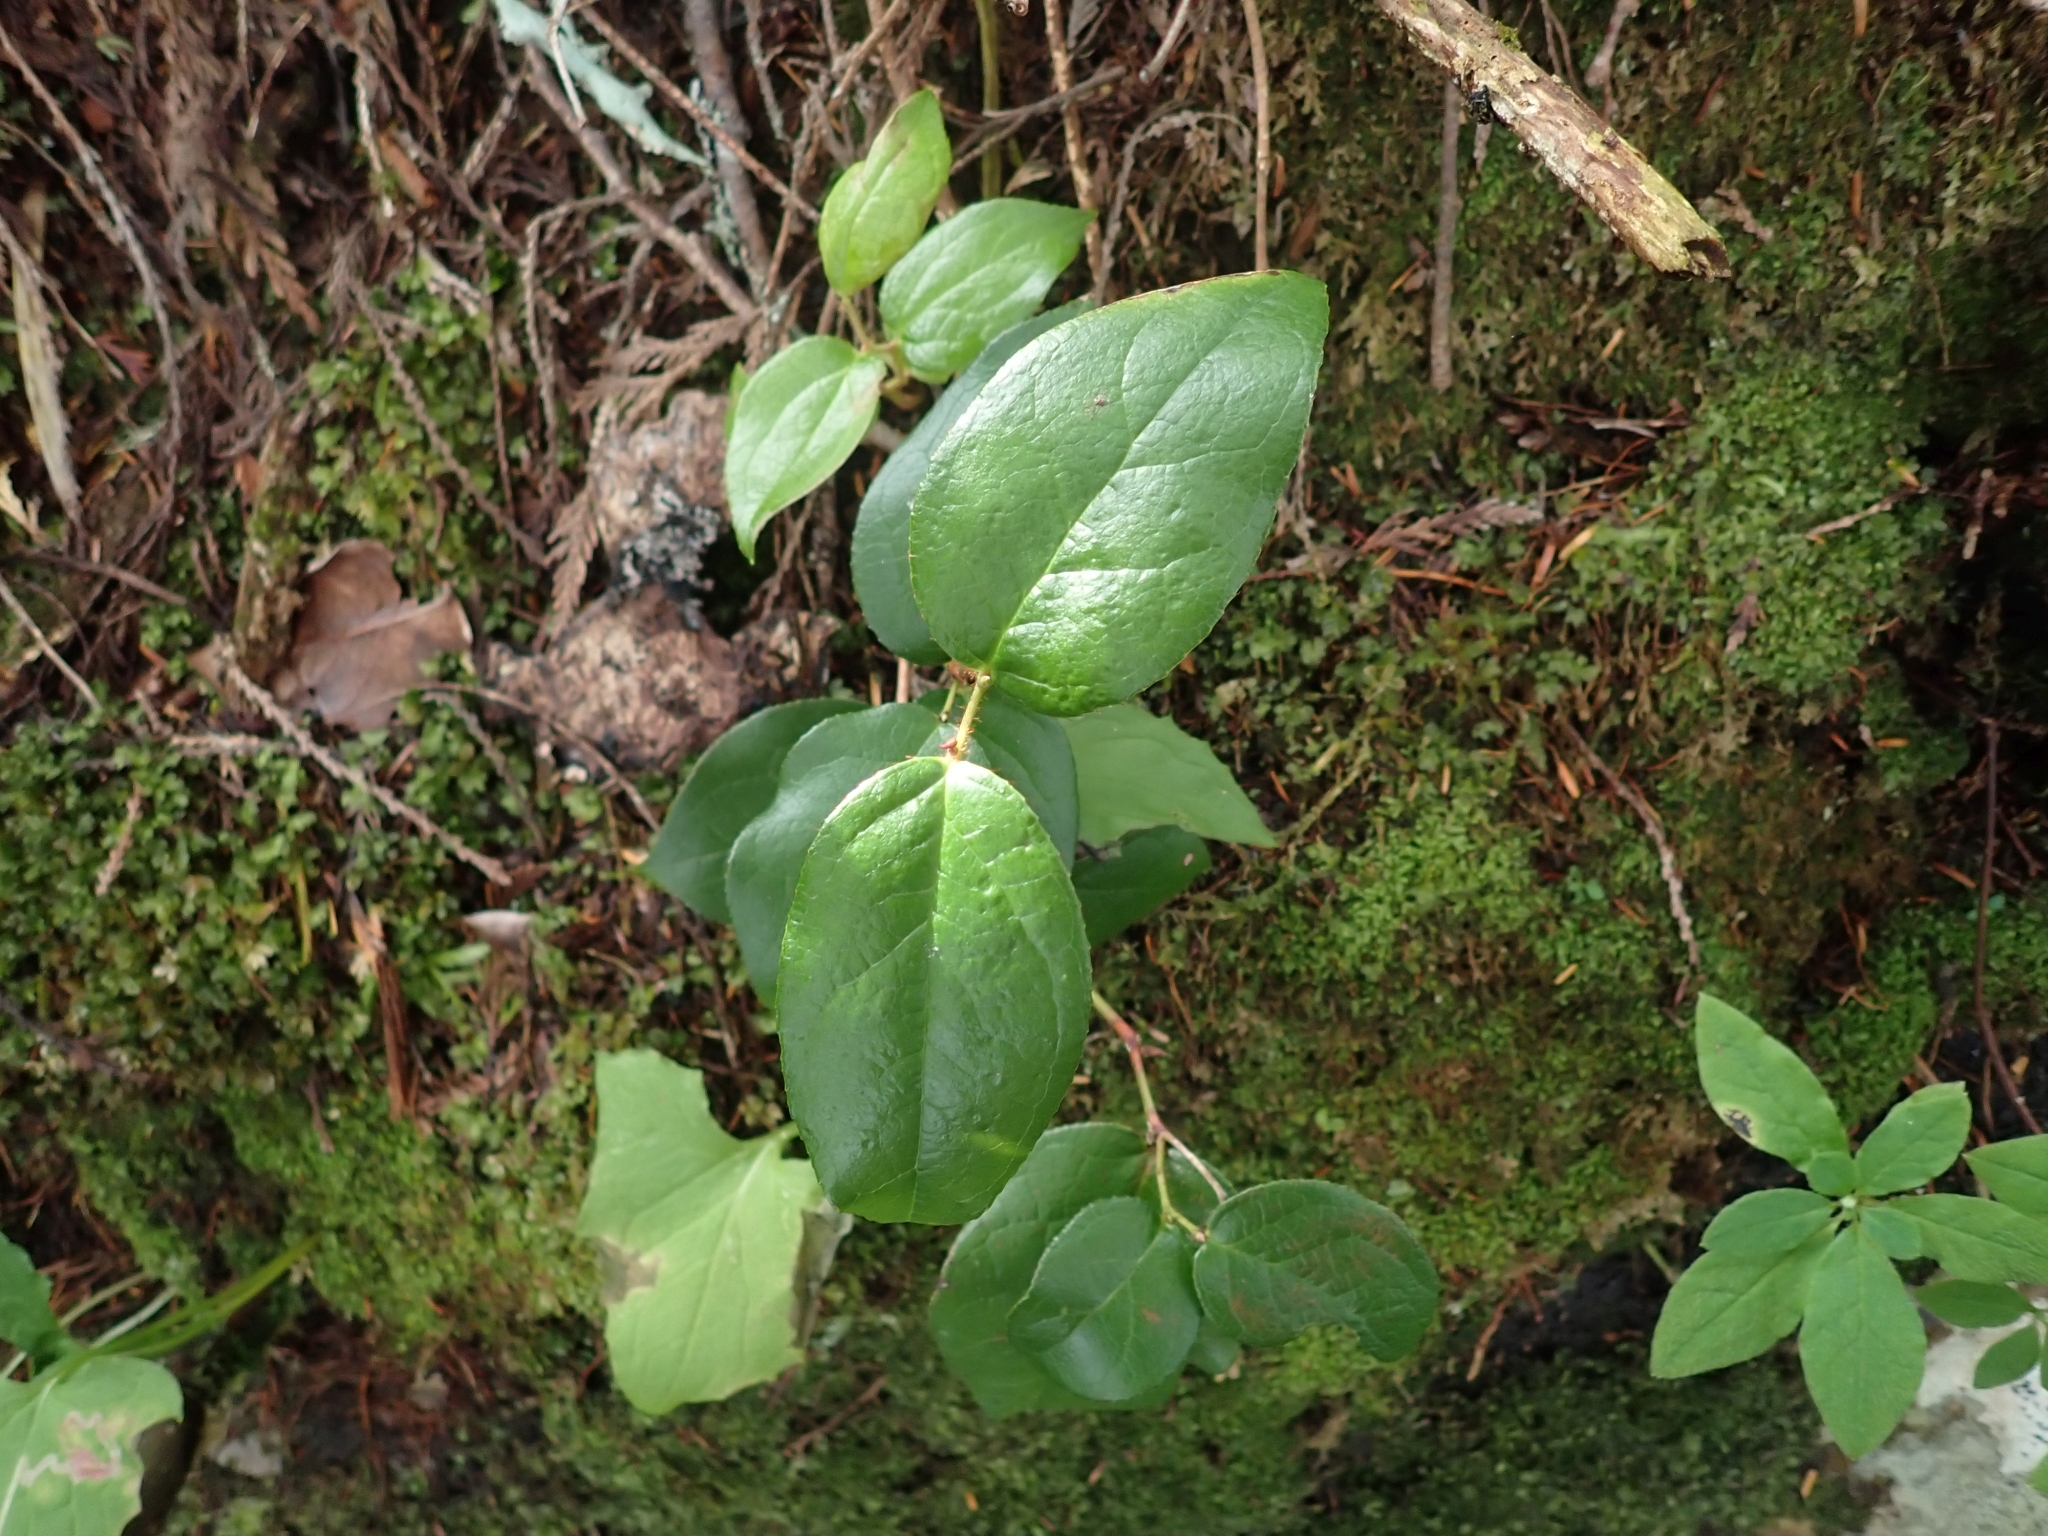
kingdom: Plantae
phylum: Tracheophyta
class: Magnoliopsida
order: Ericales
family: Ericaceae
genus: Gaultheria
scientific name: Gaultheria shallon
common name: Shallon
